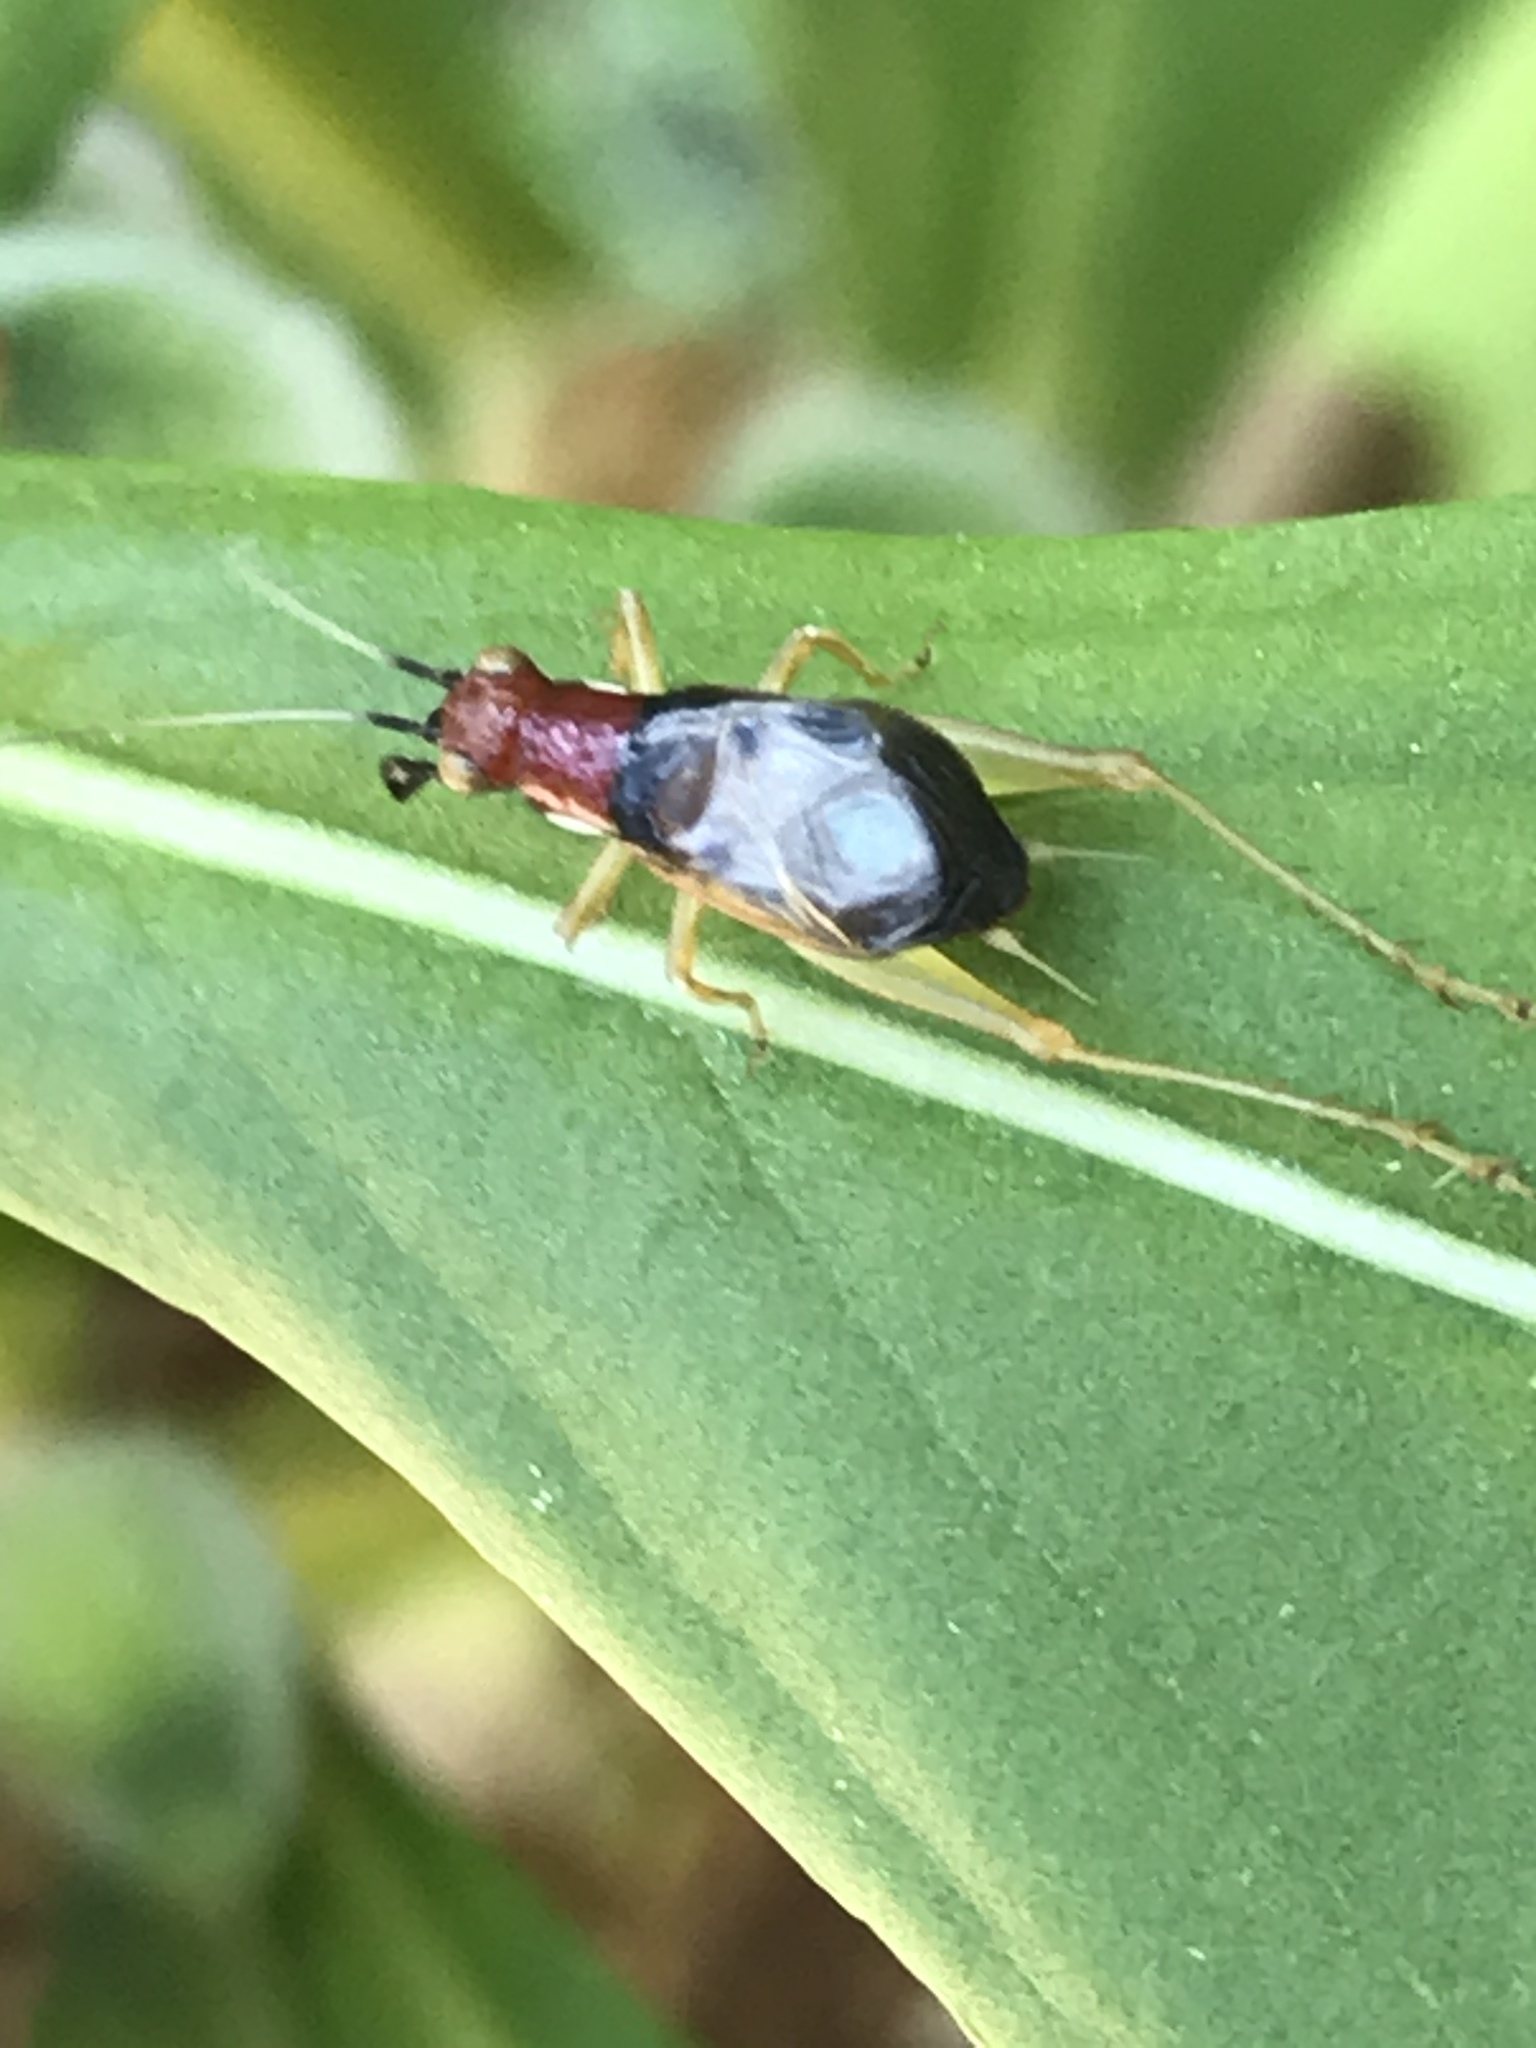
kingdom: Animalia
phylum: Arthropoda
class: Insecta
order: Orthoptera
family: Trigonidiidae
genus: Phyllopalpus
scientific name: Phyllopalpus pulchellus
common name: Handsome trig
